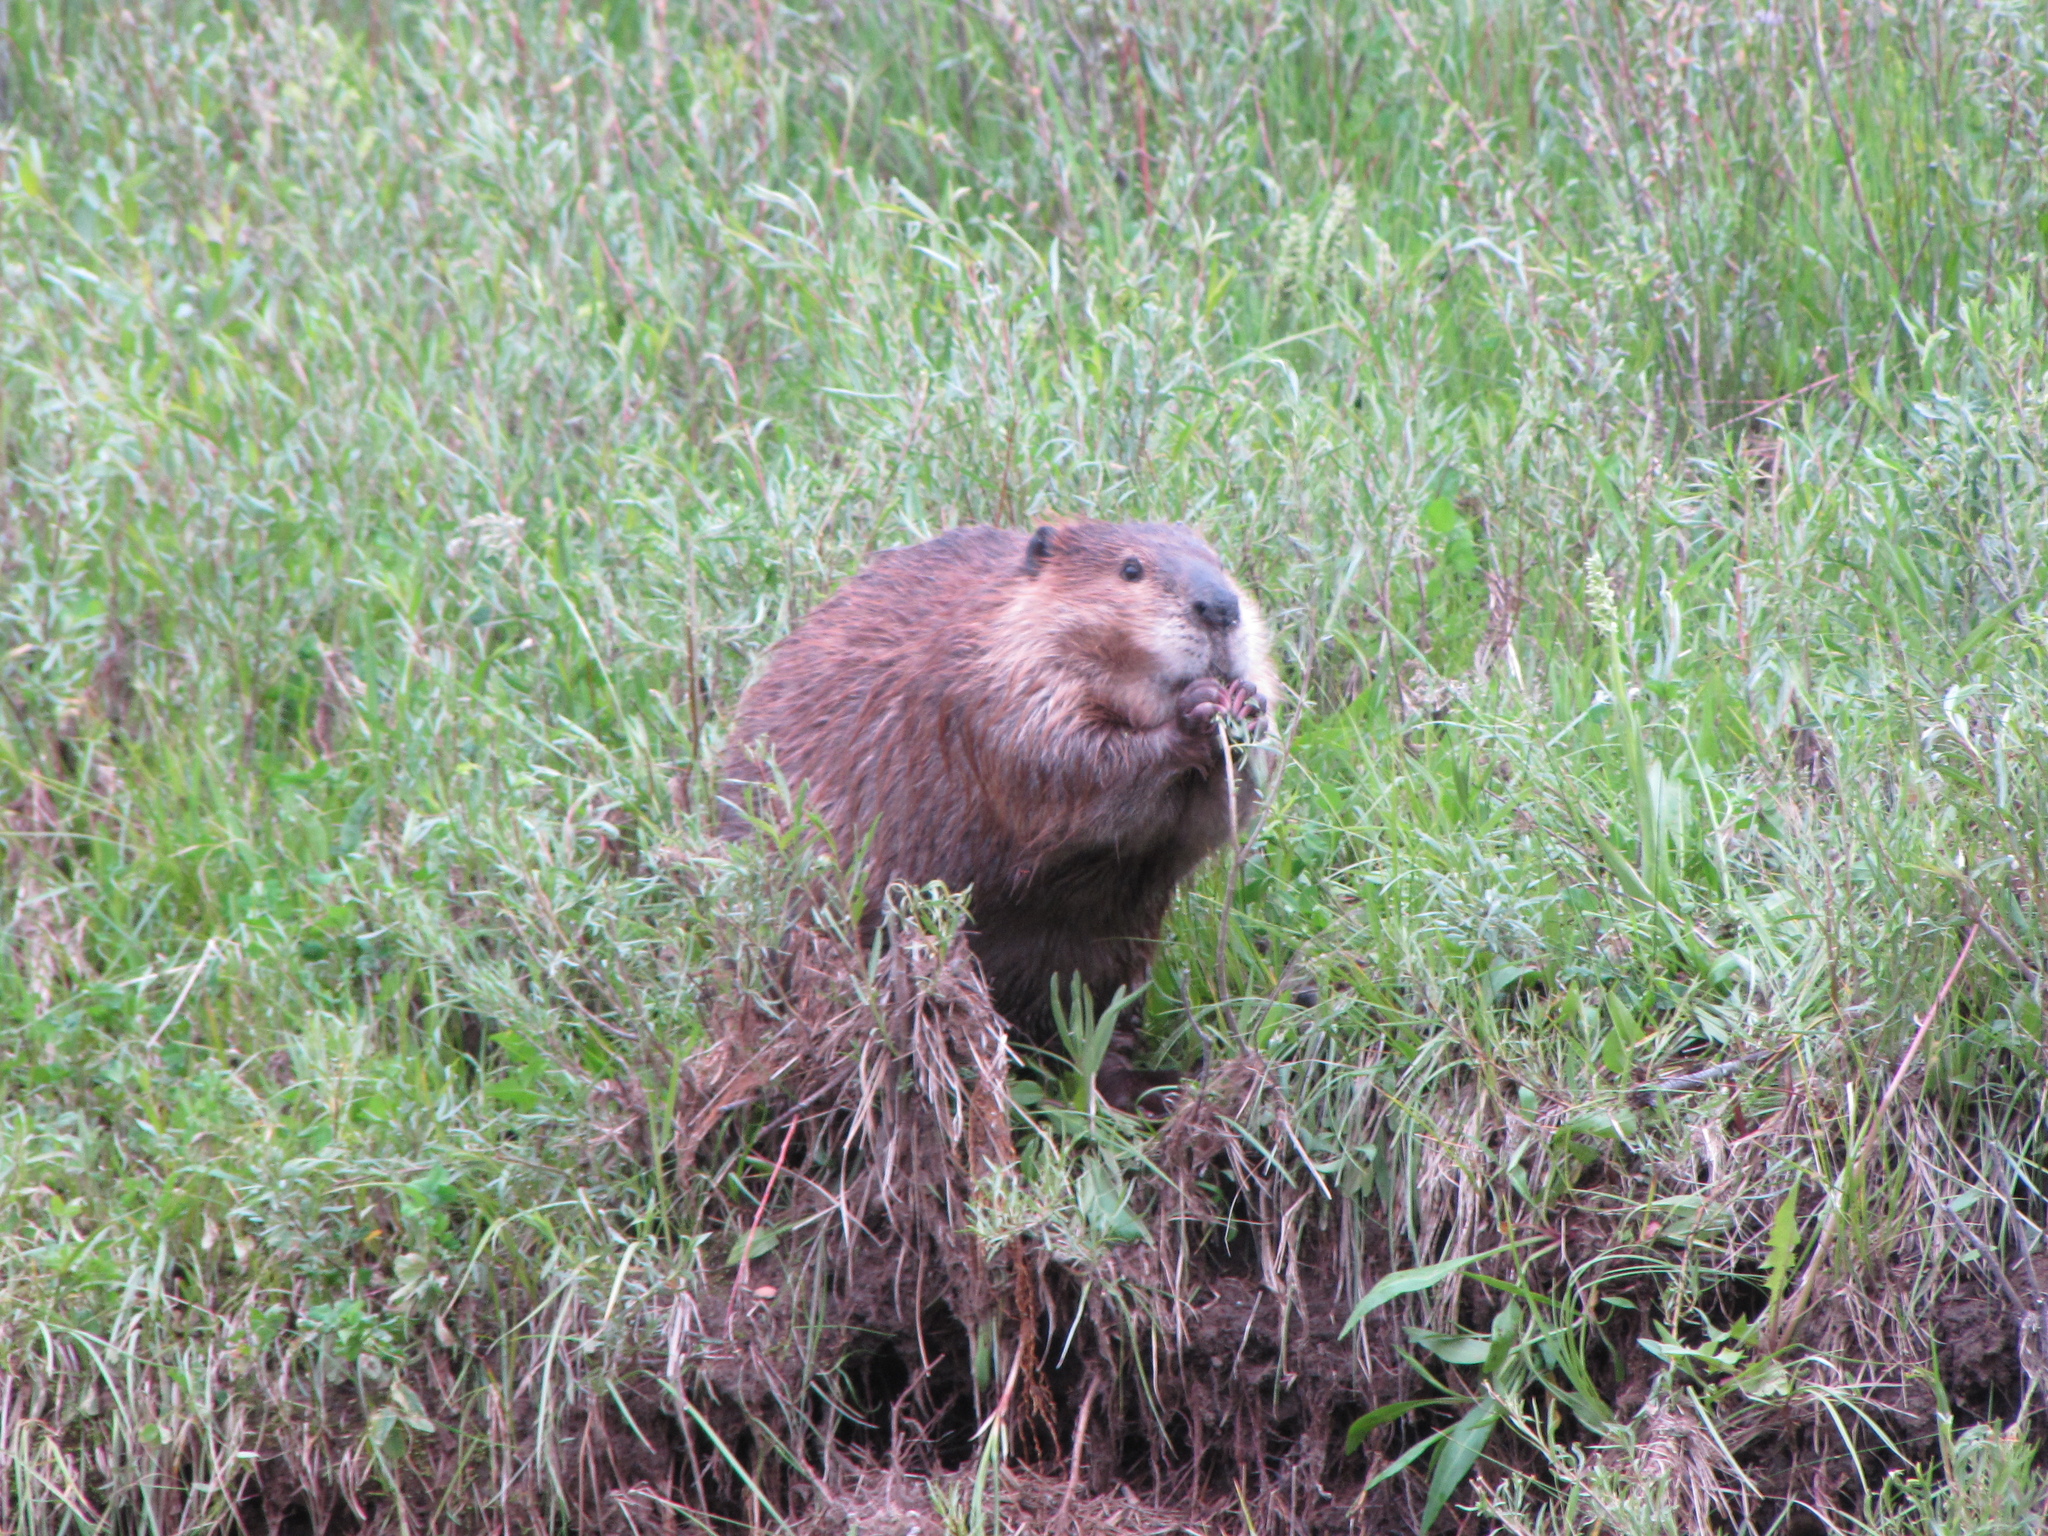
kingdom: Animalia
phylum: Chordata
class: Mammalia
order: Rodentia
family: Castoridae
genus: Castor
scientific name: Castor canadensis
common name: American beaver
